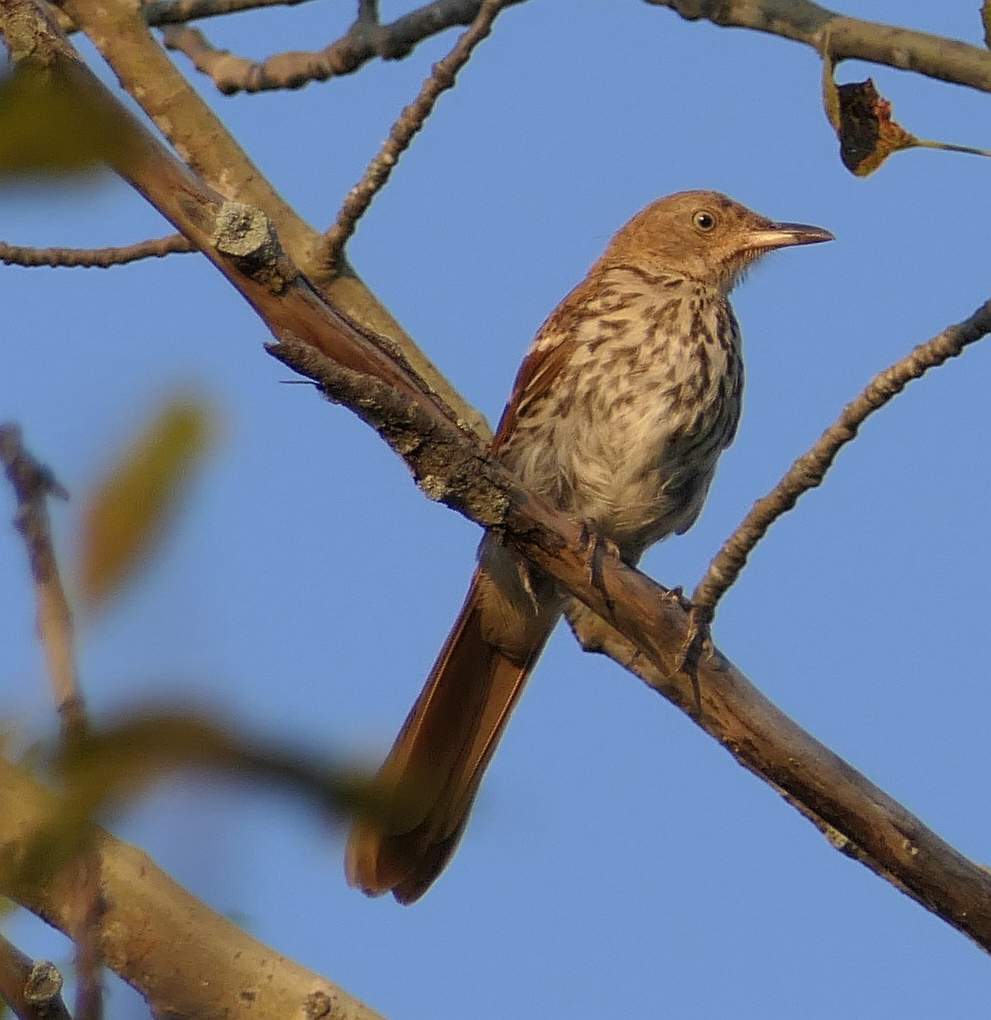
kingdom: Animalia
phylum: Chordata
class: Aves
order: Passeriformes
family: Mimidae
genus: Toxostoma
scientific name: Toxostoma rufum
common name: Brown thrasher
